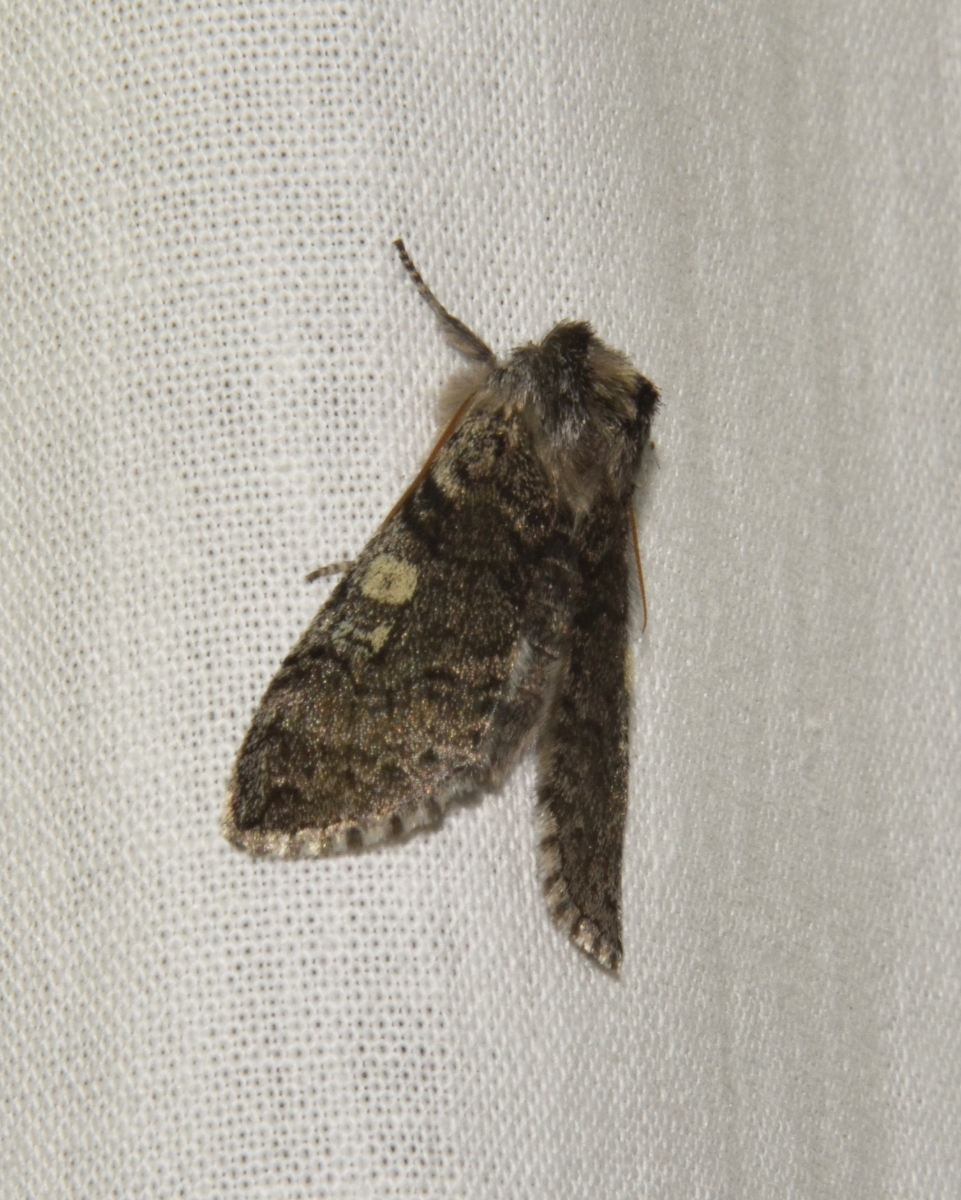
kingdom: Animalia
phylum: Arthropoda
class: Insecta
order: Lepidoptera
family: Drepanidae
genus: Achlya
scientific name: Achlya flavicornis
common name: Yellow horned
